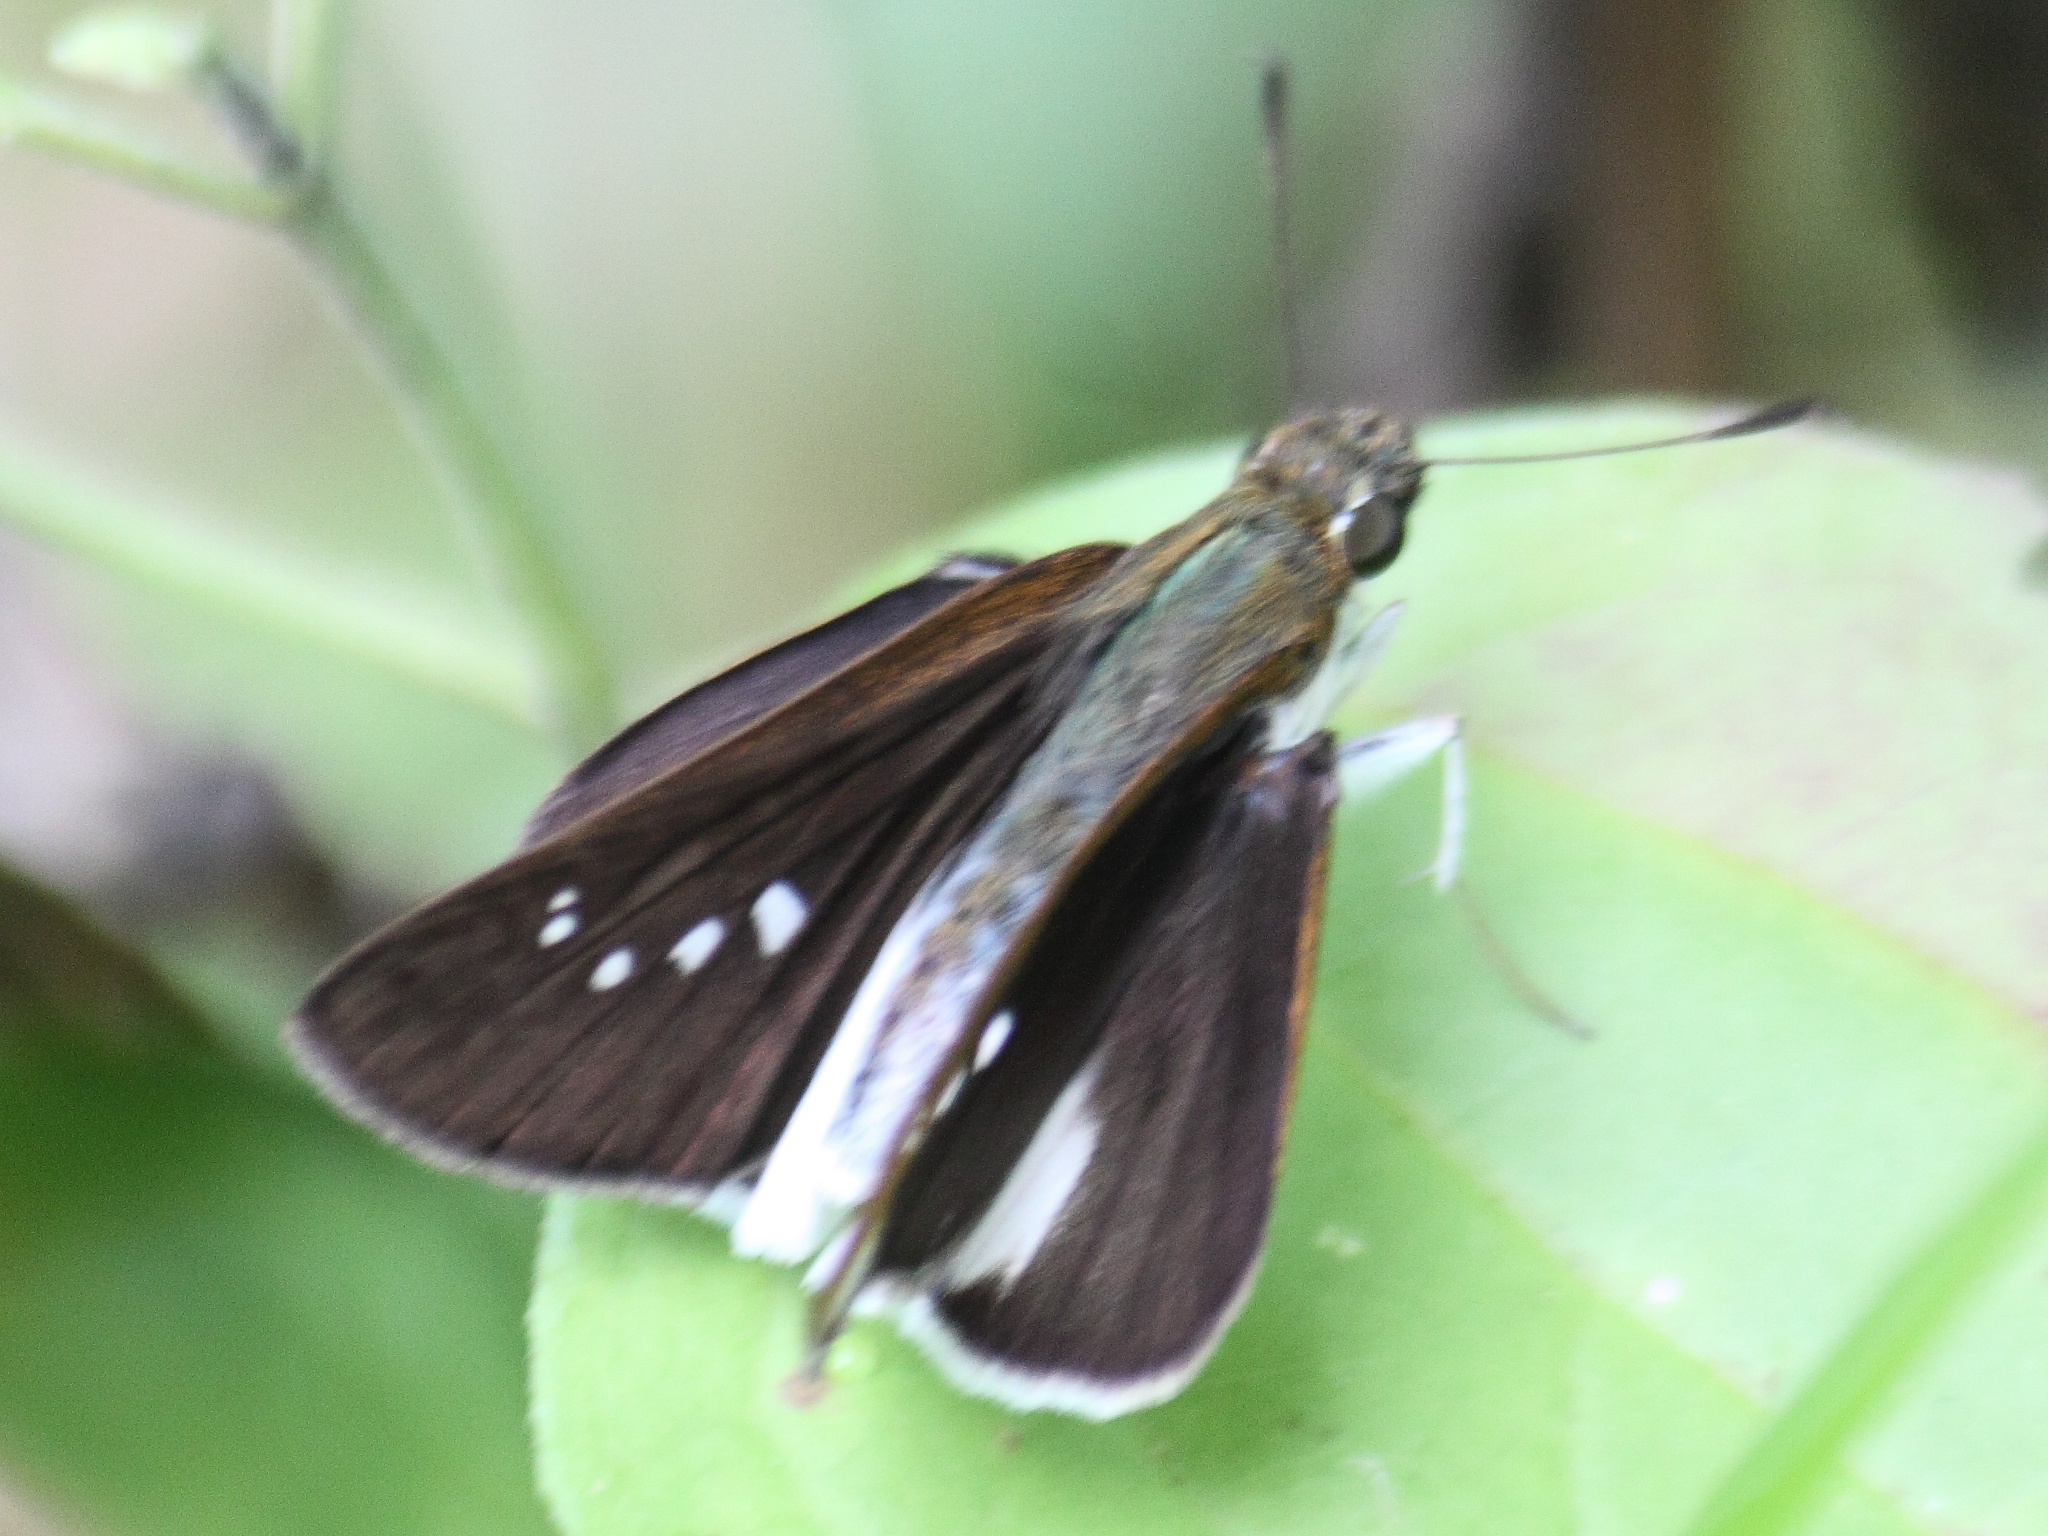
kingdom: Animalia
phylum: Arthropoda
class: Insecta
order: Lepidoptera
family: Hesperiidae
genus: Iton
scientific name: Iton semamora
